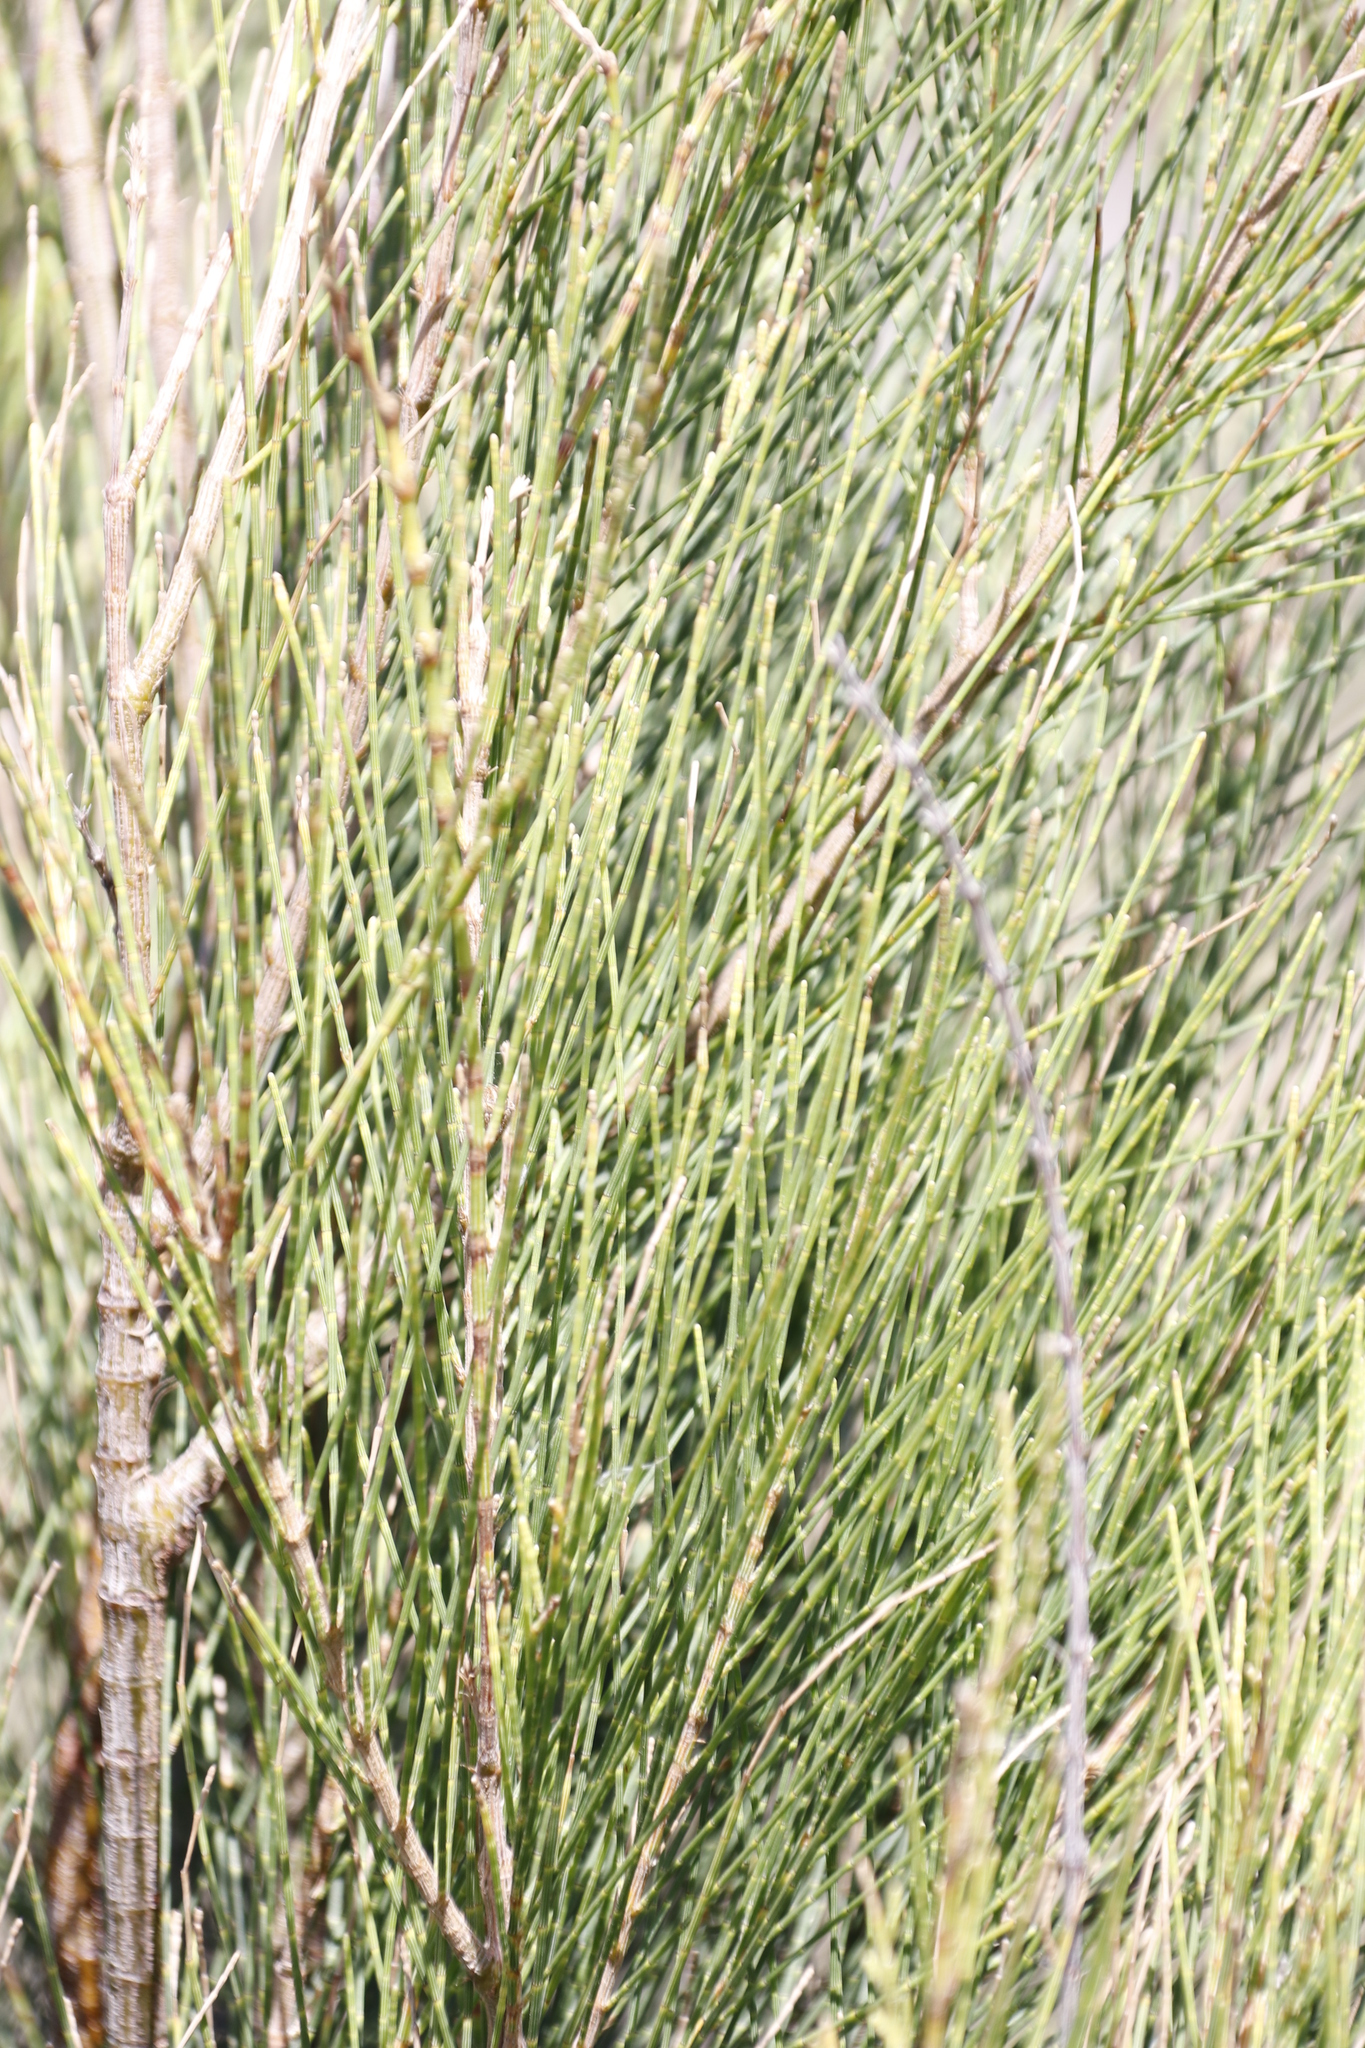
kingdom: Plantae
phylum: Tracheophyta
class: Magnoliopsida
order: Fagales
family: Casuarinaceae
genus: Casuarina
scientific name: Casuarina cunninghamiana
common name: River sheoak
